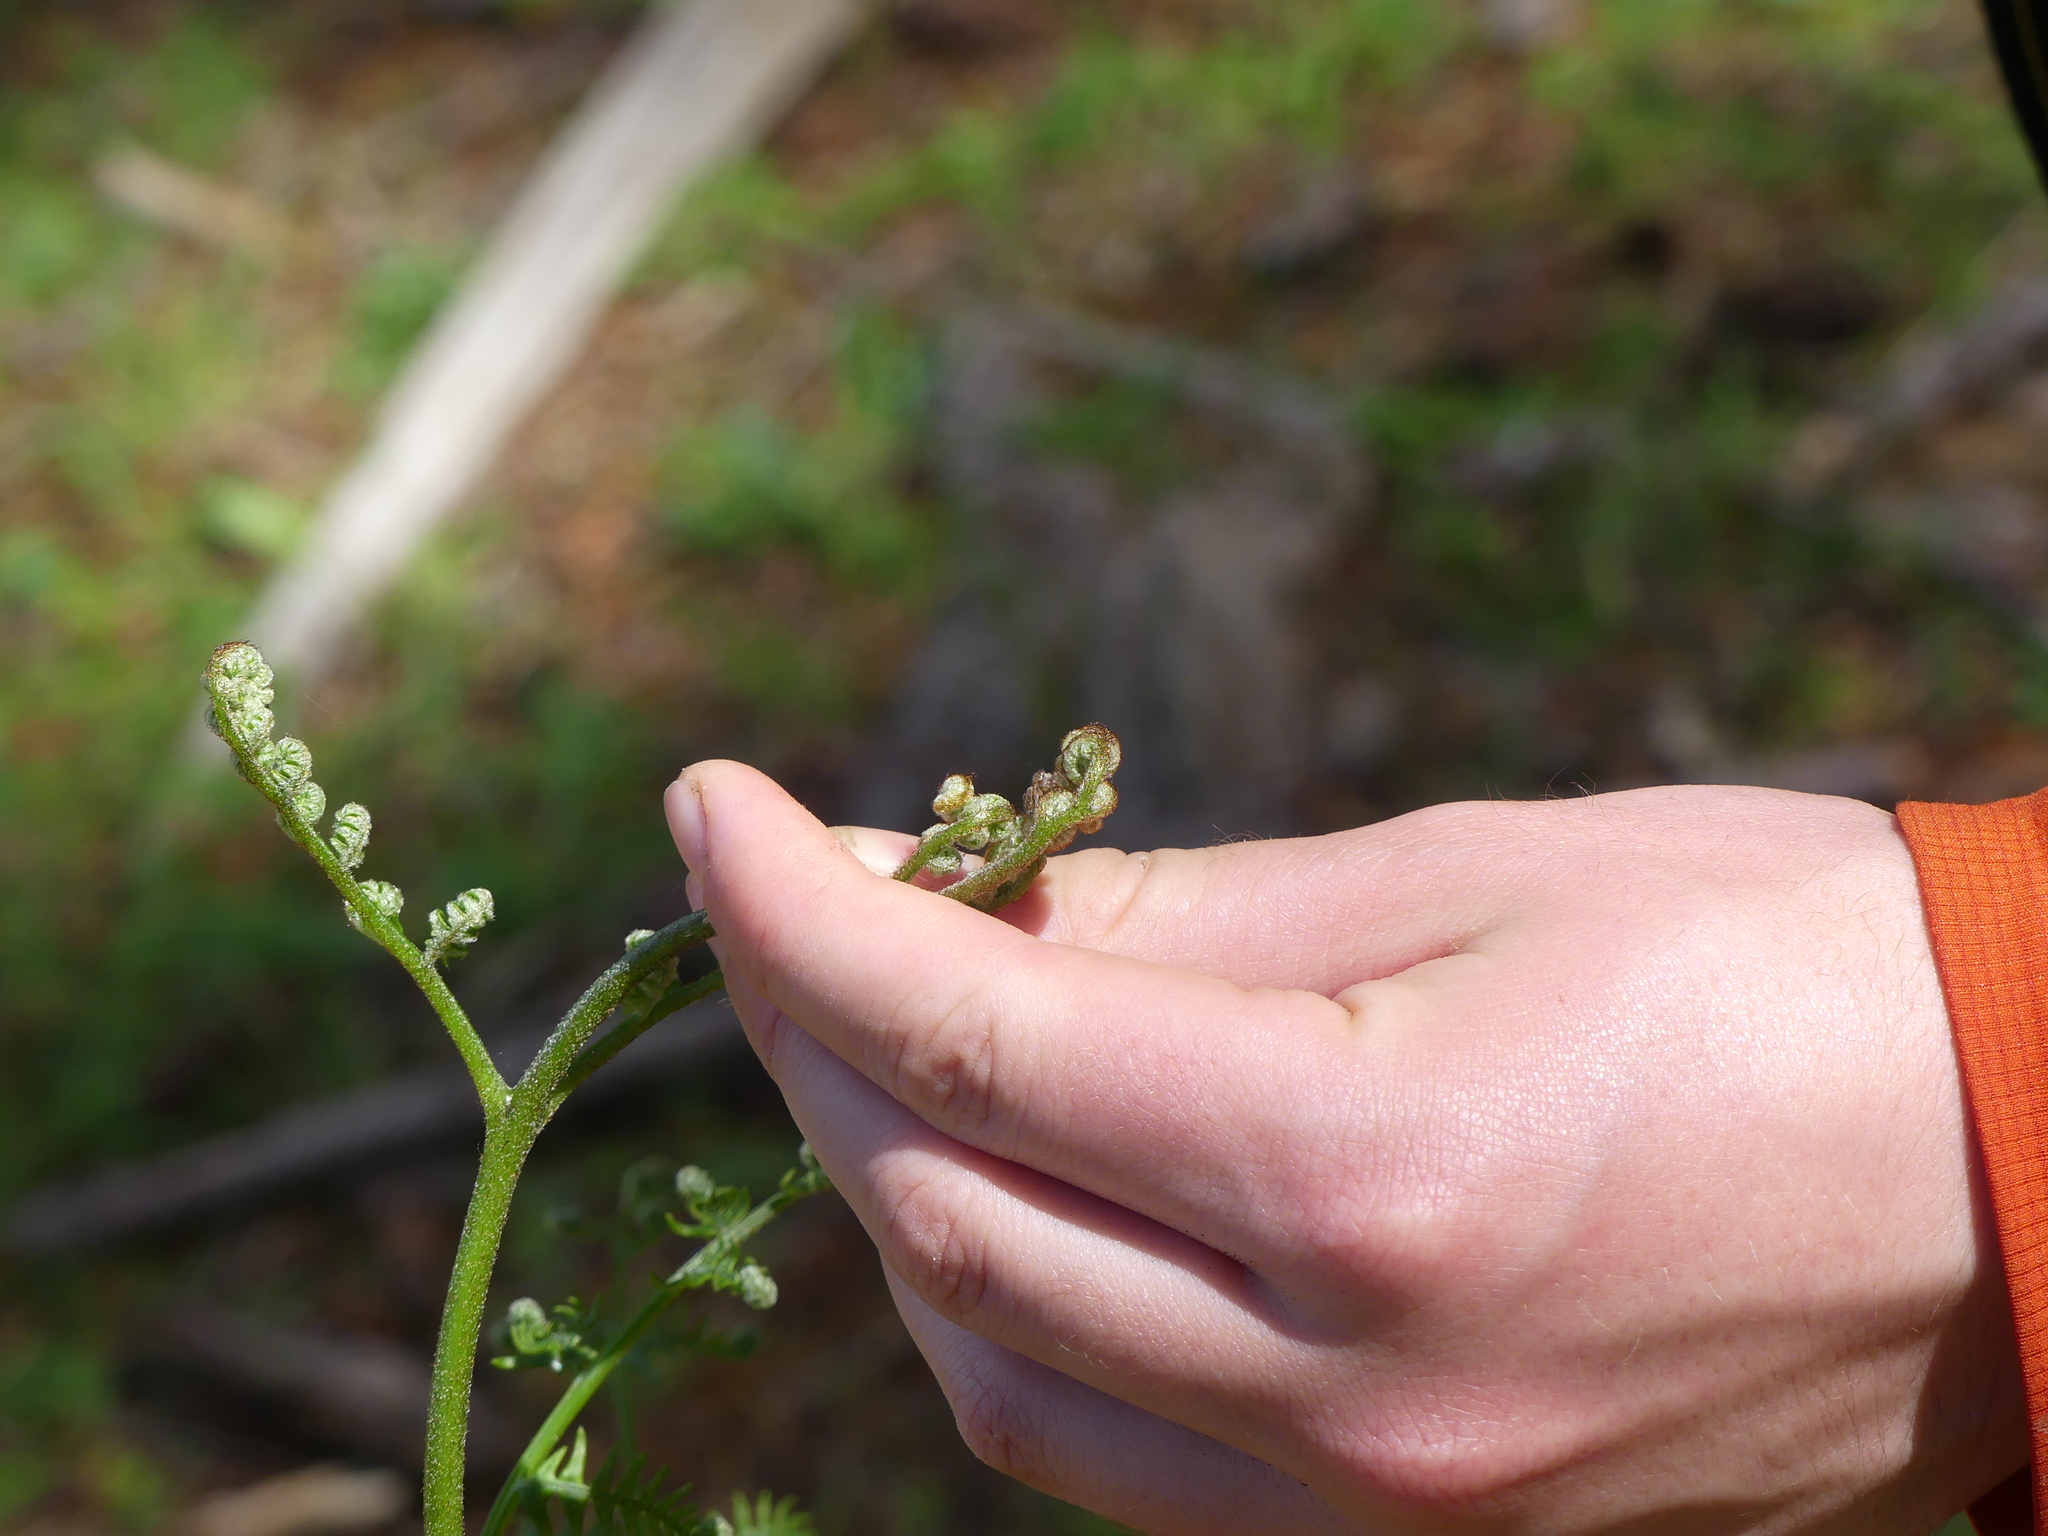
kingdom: Plantae
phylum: Tracheophyta
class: Polypodiopsida
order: Polypodiales
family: Dennstaedtiaceae
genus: Pteridium
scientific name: Pteridium aquilinum
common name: Bracken
